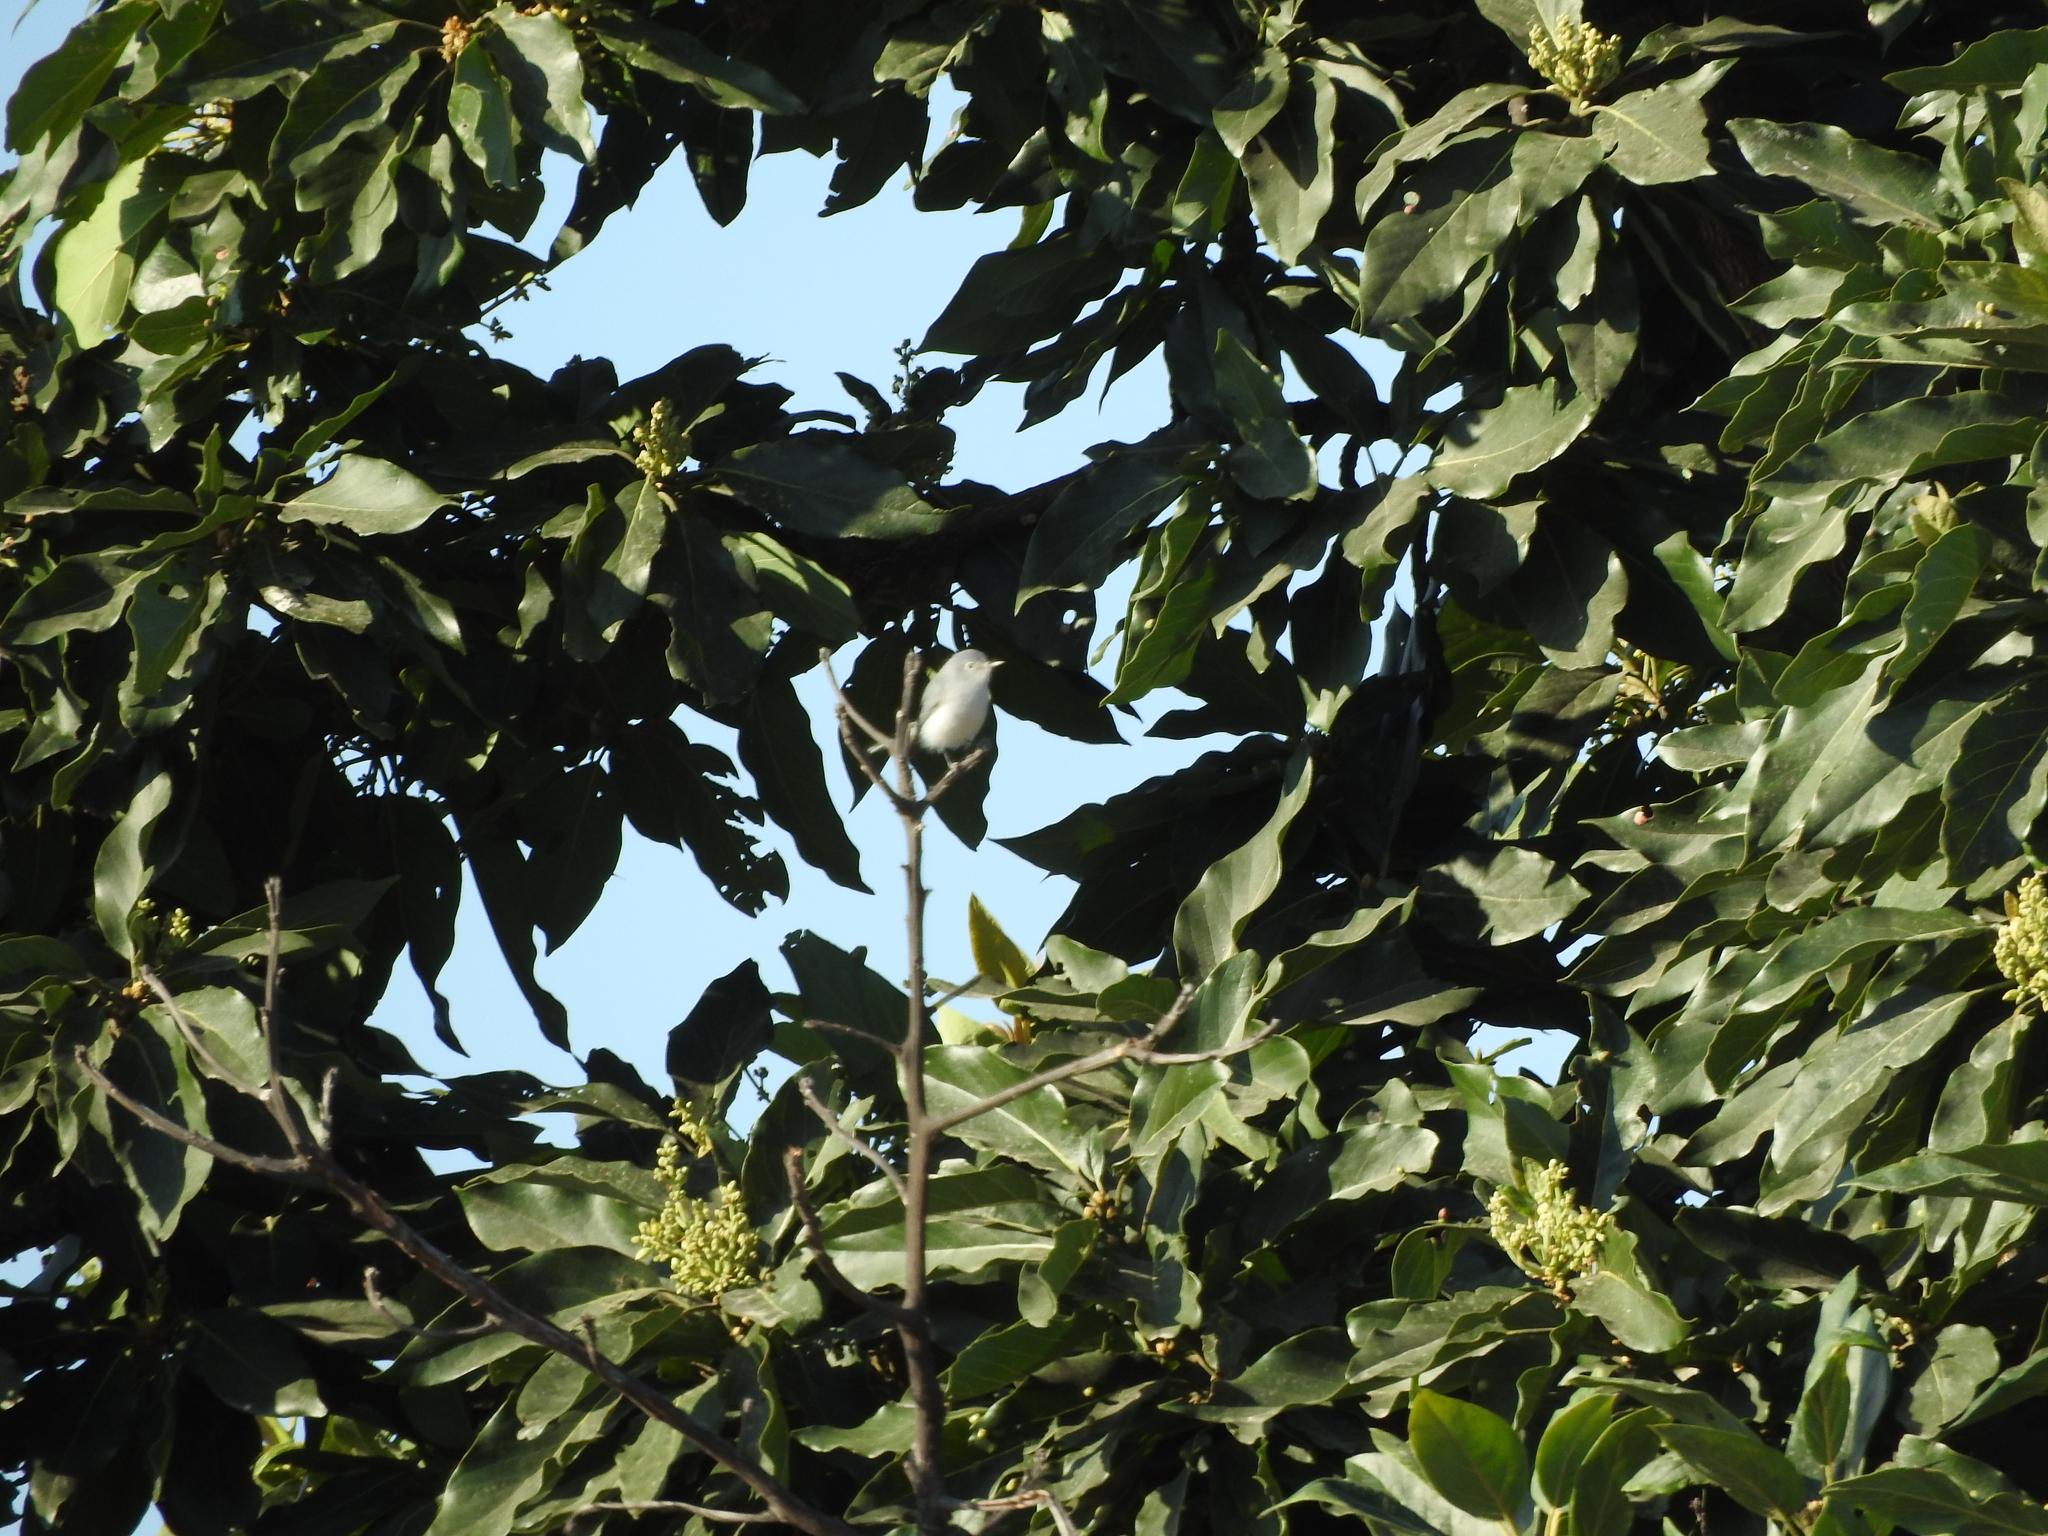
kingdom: Animalia
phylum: Chordata
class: Aves
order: Passeriformes
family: Polioptilidae
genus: Polioptila
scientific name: Polioptila caerulea
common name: Blue-gray gnatcatcher
